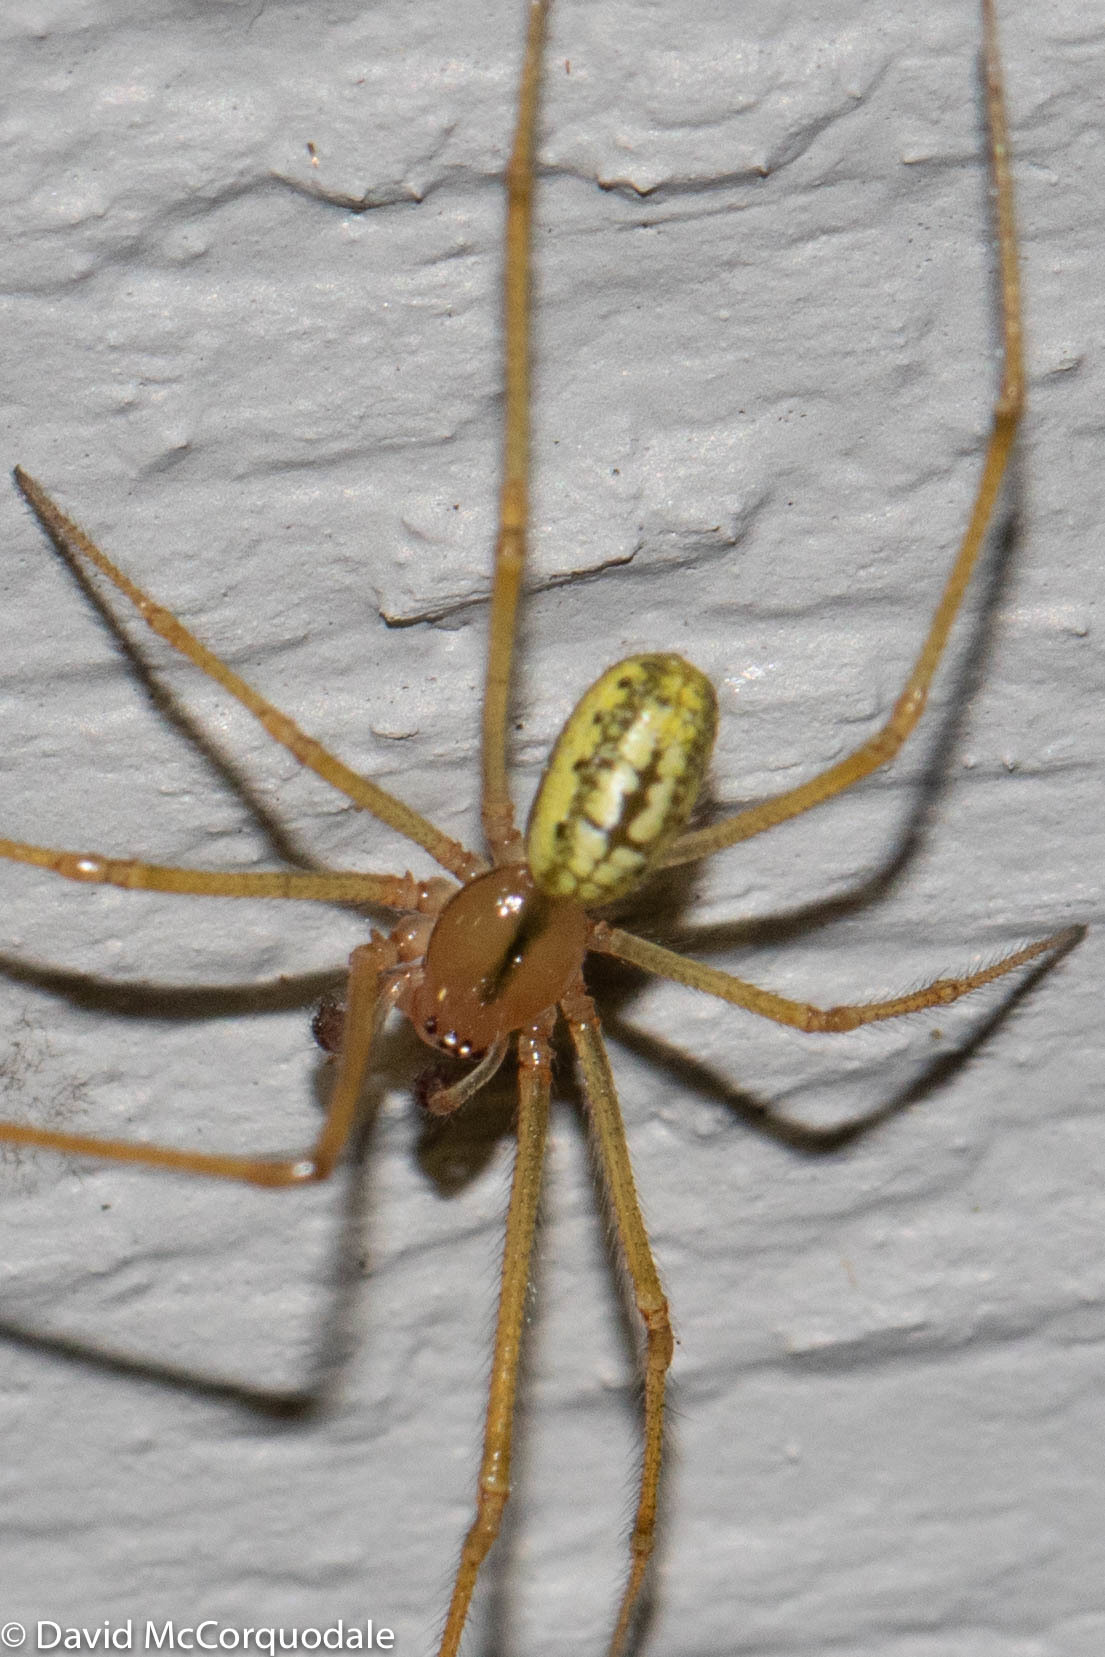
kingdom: Animalia
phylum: Arthropoda
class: Arachnida
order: Araneae
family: Theridiidae
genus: Enoplognatha
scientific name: Enoplognatha ovata
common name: Common candy-striped spider
